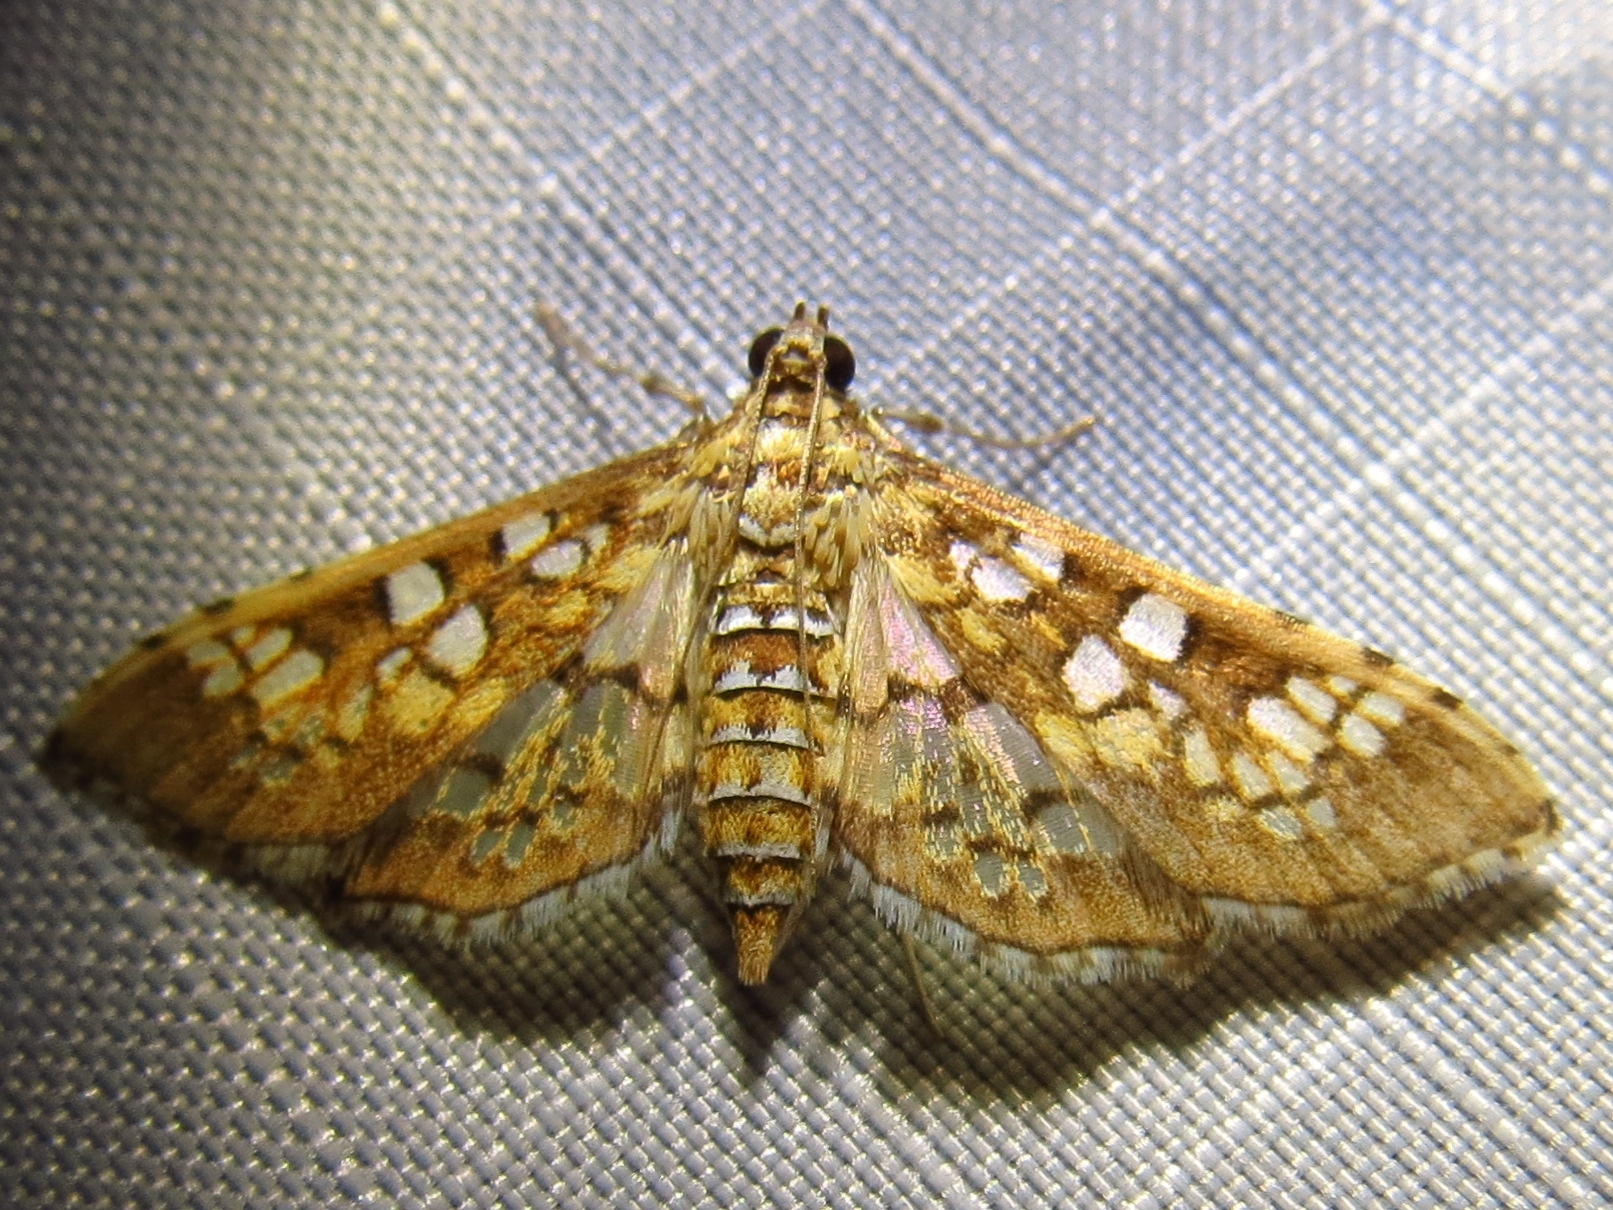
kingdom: Animalia
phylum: Arthropoda
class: Insecta
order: Lepidoptera
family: Crambidae
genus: Samea
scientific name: Samea ecclesialis
